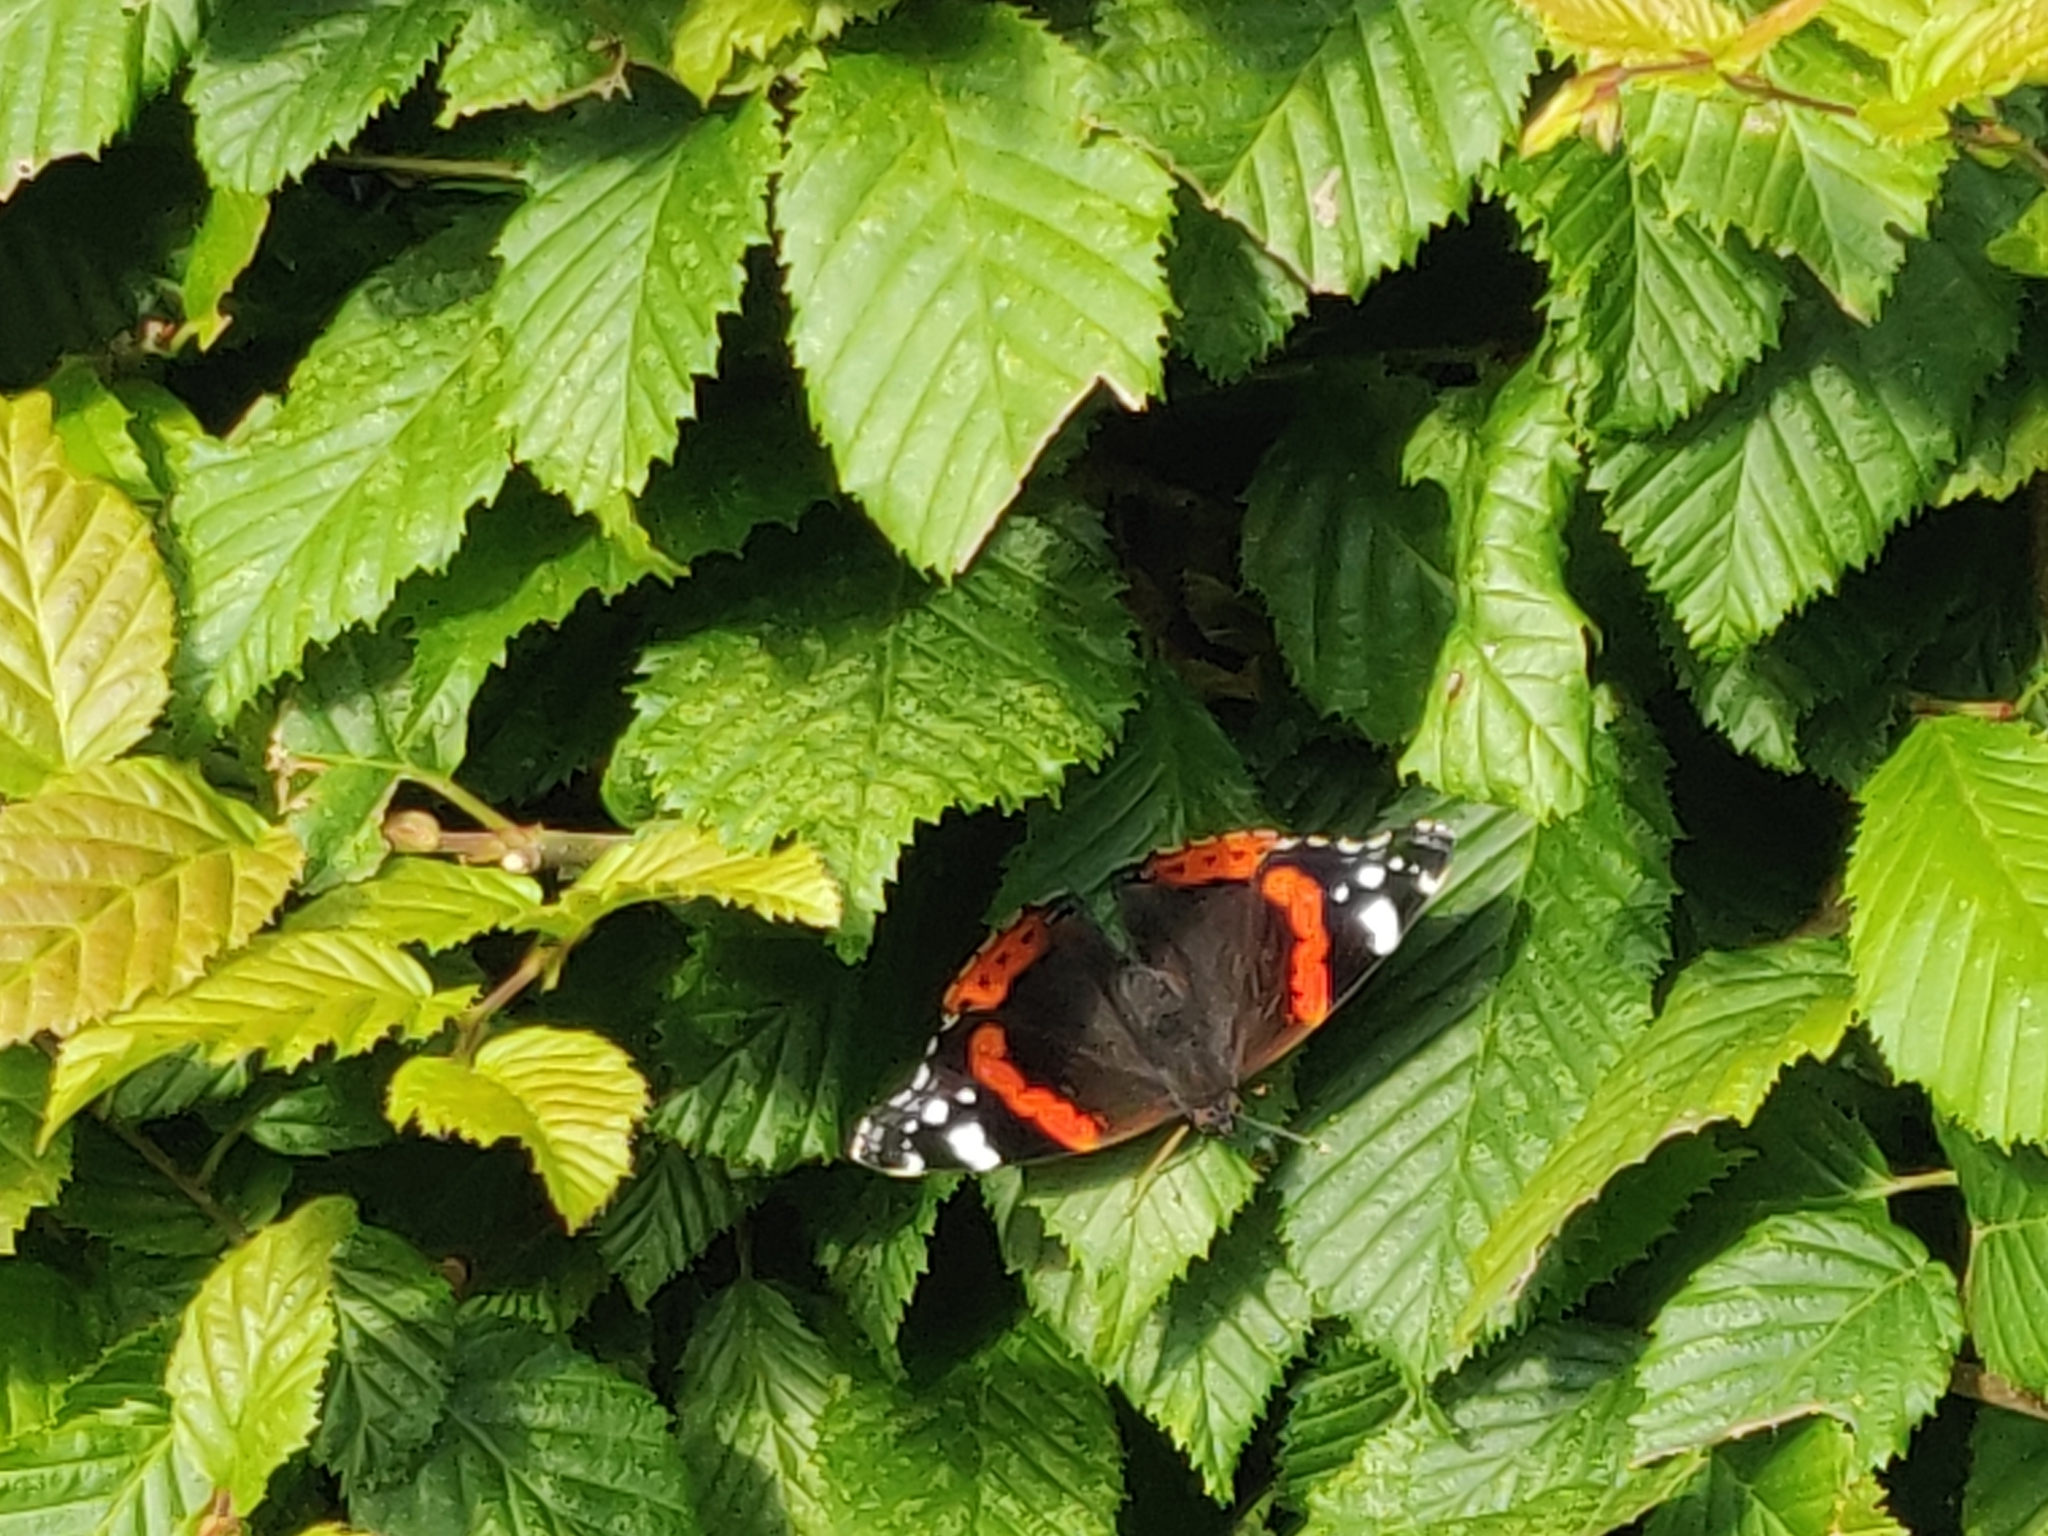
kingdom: Animalia
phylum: Arthropoda
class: Insecta
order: Lepidoptera
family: Nymphalidae
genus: Vanessa
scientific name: Vanessa atalanta
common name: Red admiral
